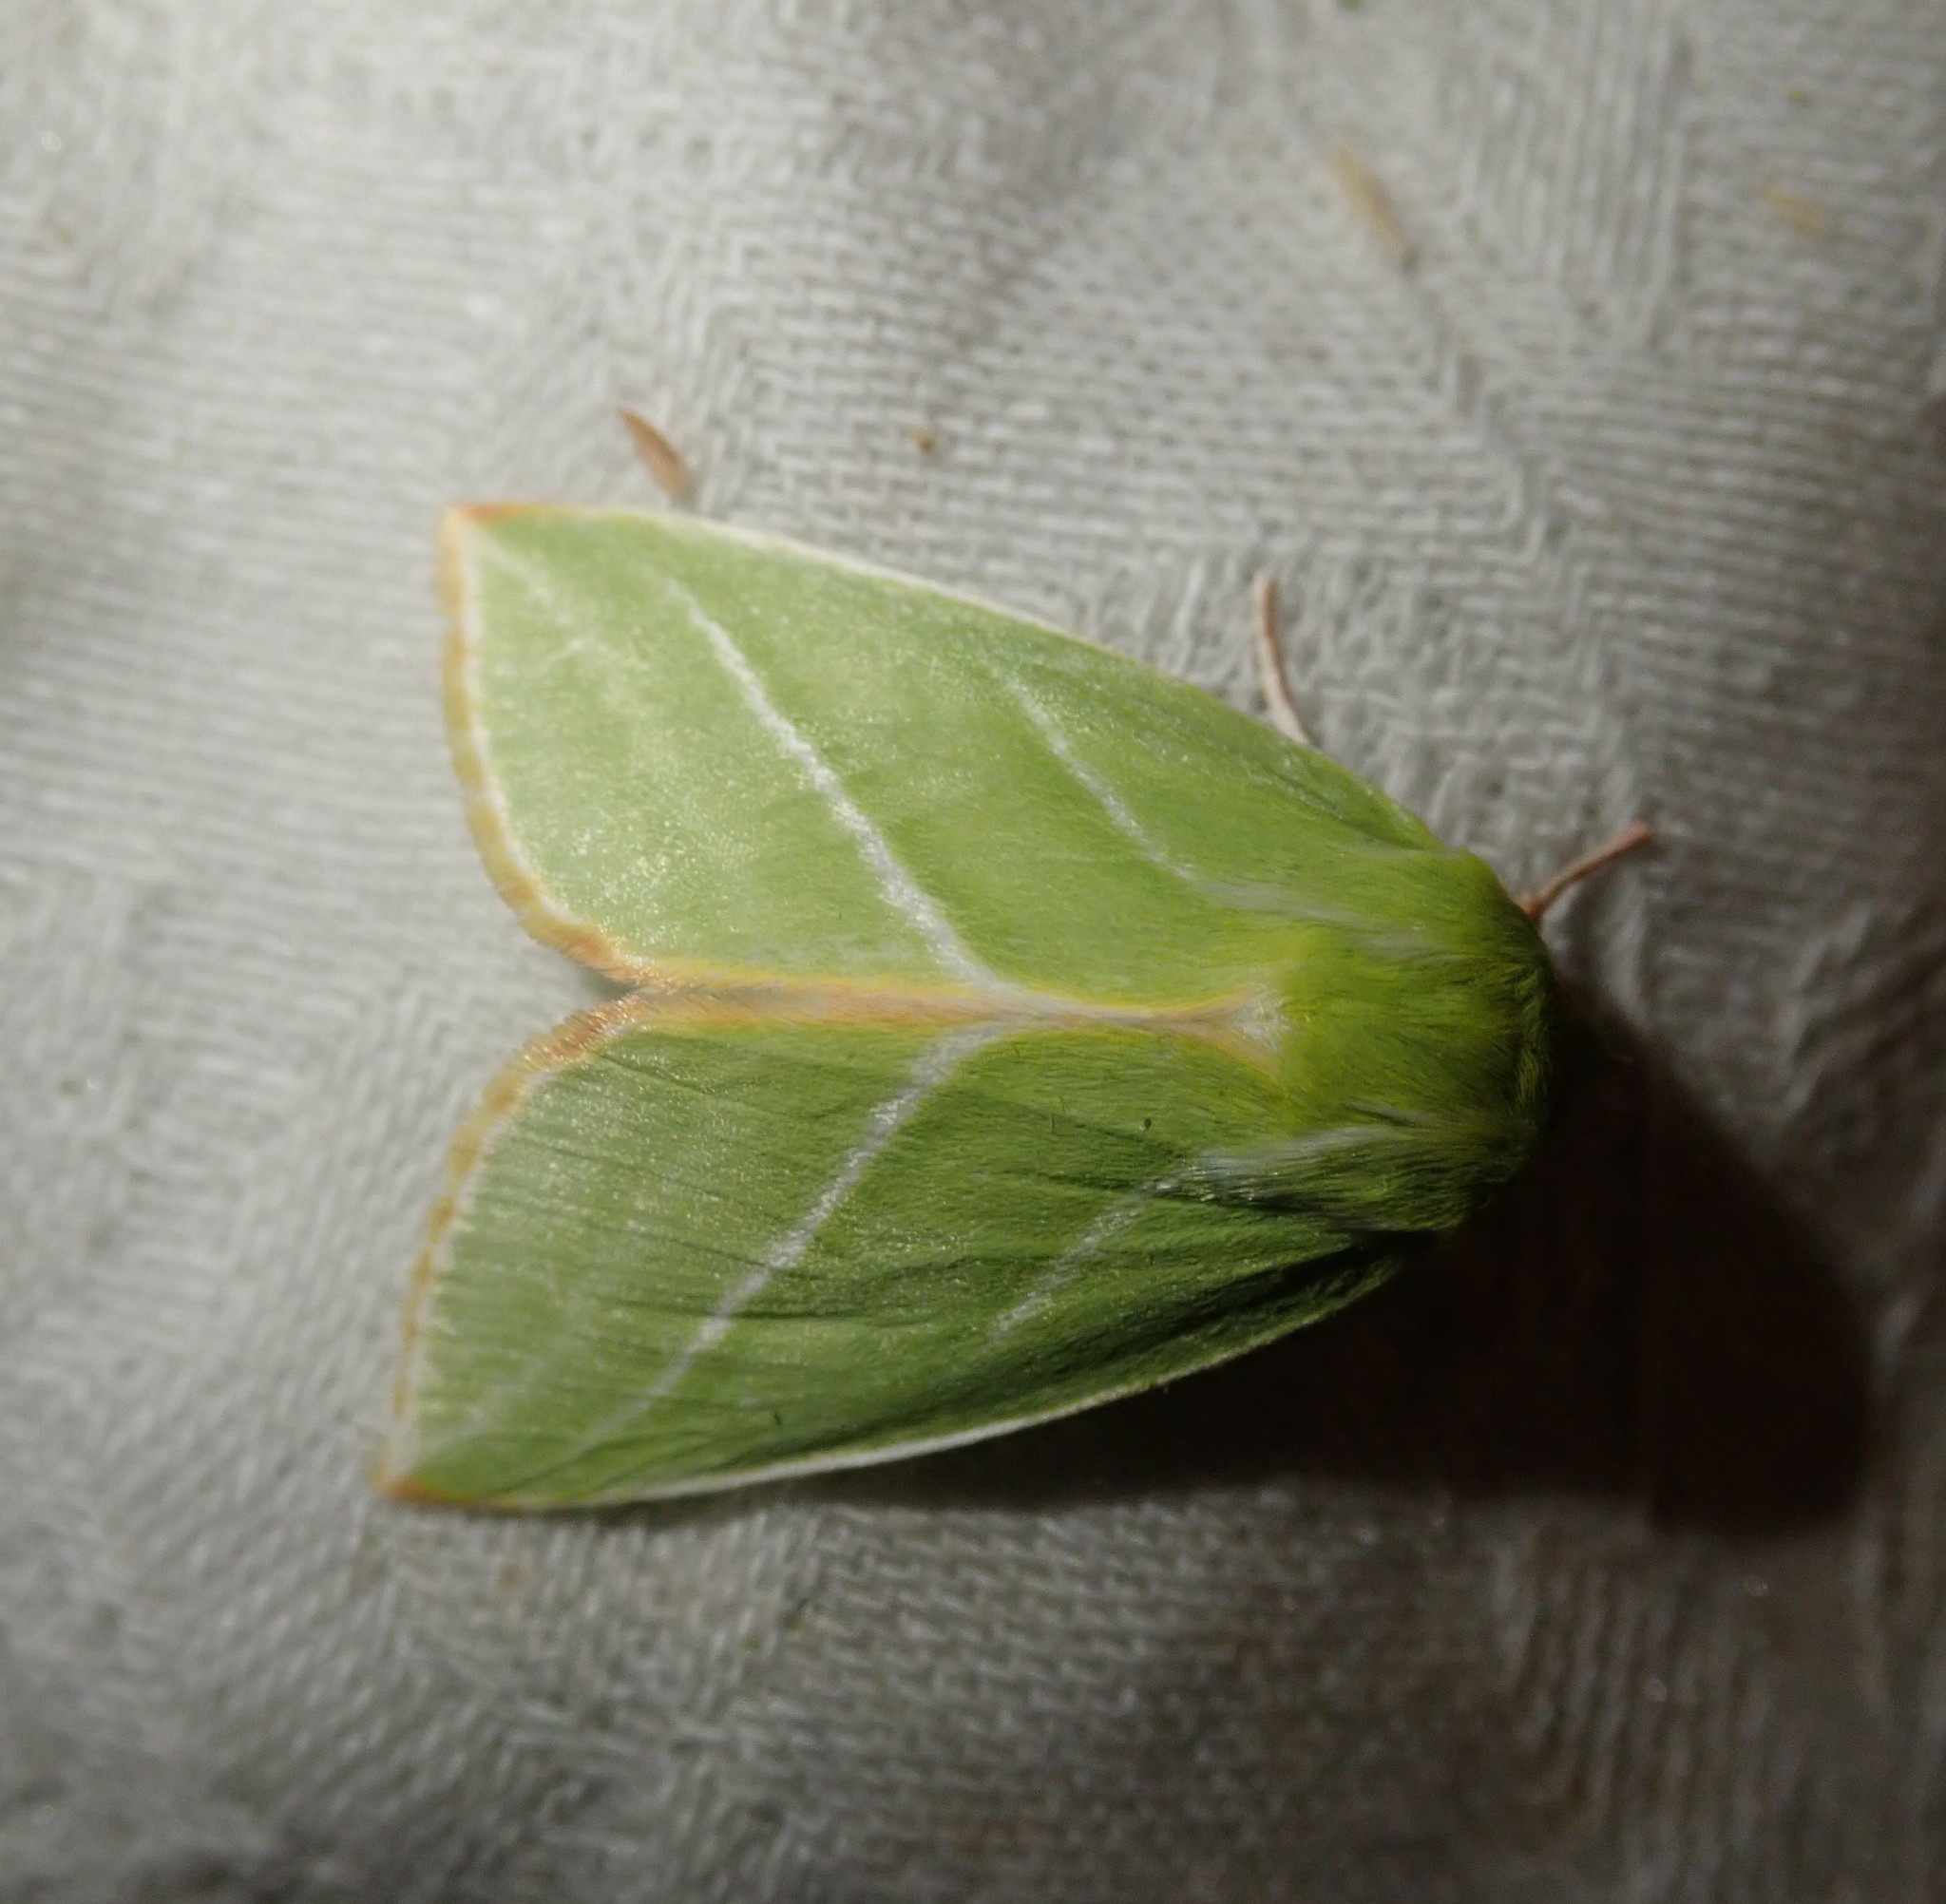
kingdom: Animalia
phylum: Arthropoda
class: Insecta
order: Lepidoptera
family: Nolidae
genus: Pseudoips
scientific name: Pseudoips prasinana
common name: Green silver-lines
